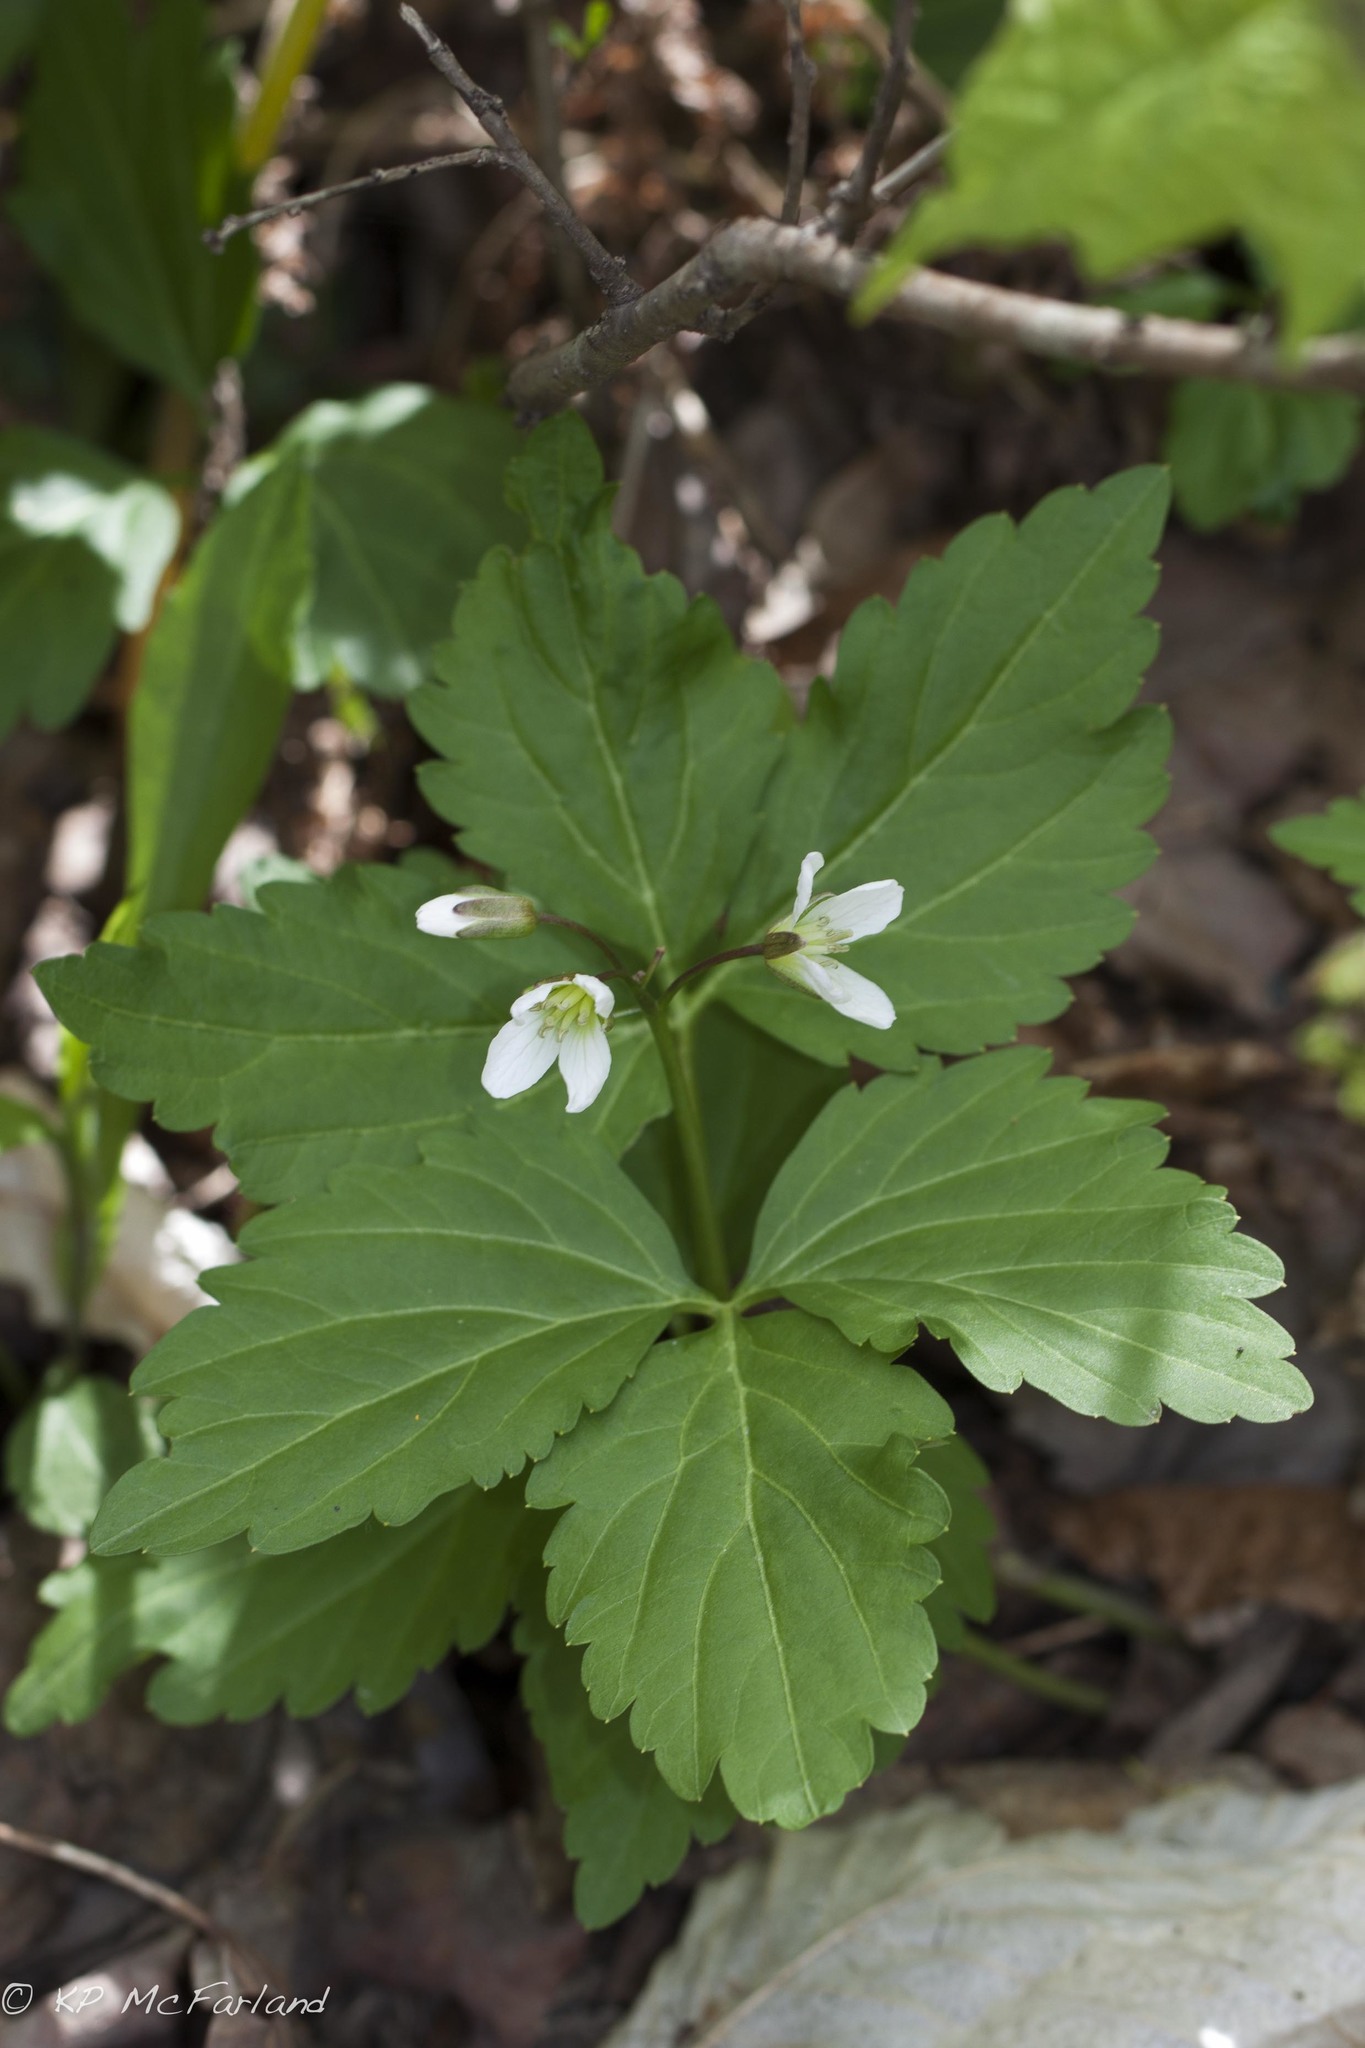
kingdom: Plantae
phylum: Tracheophyta
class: Magnoliopsida
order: Brassicales
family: Brassicaceae
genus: Cardamine
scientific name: Cardamine diphylla
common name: Broad-leaved toothwort
